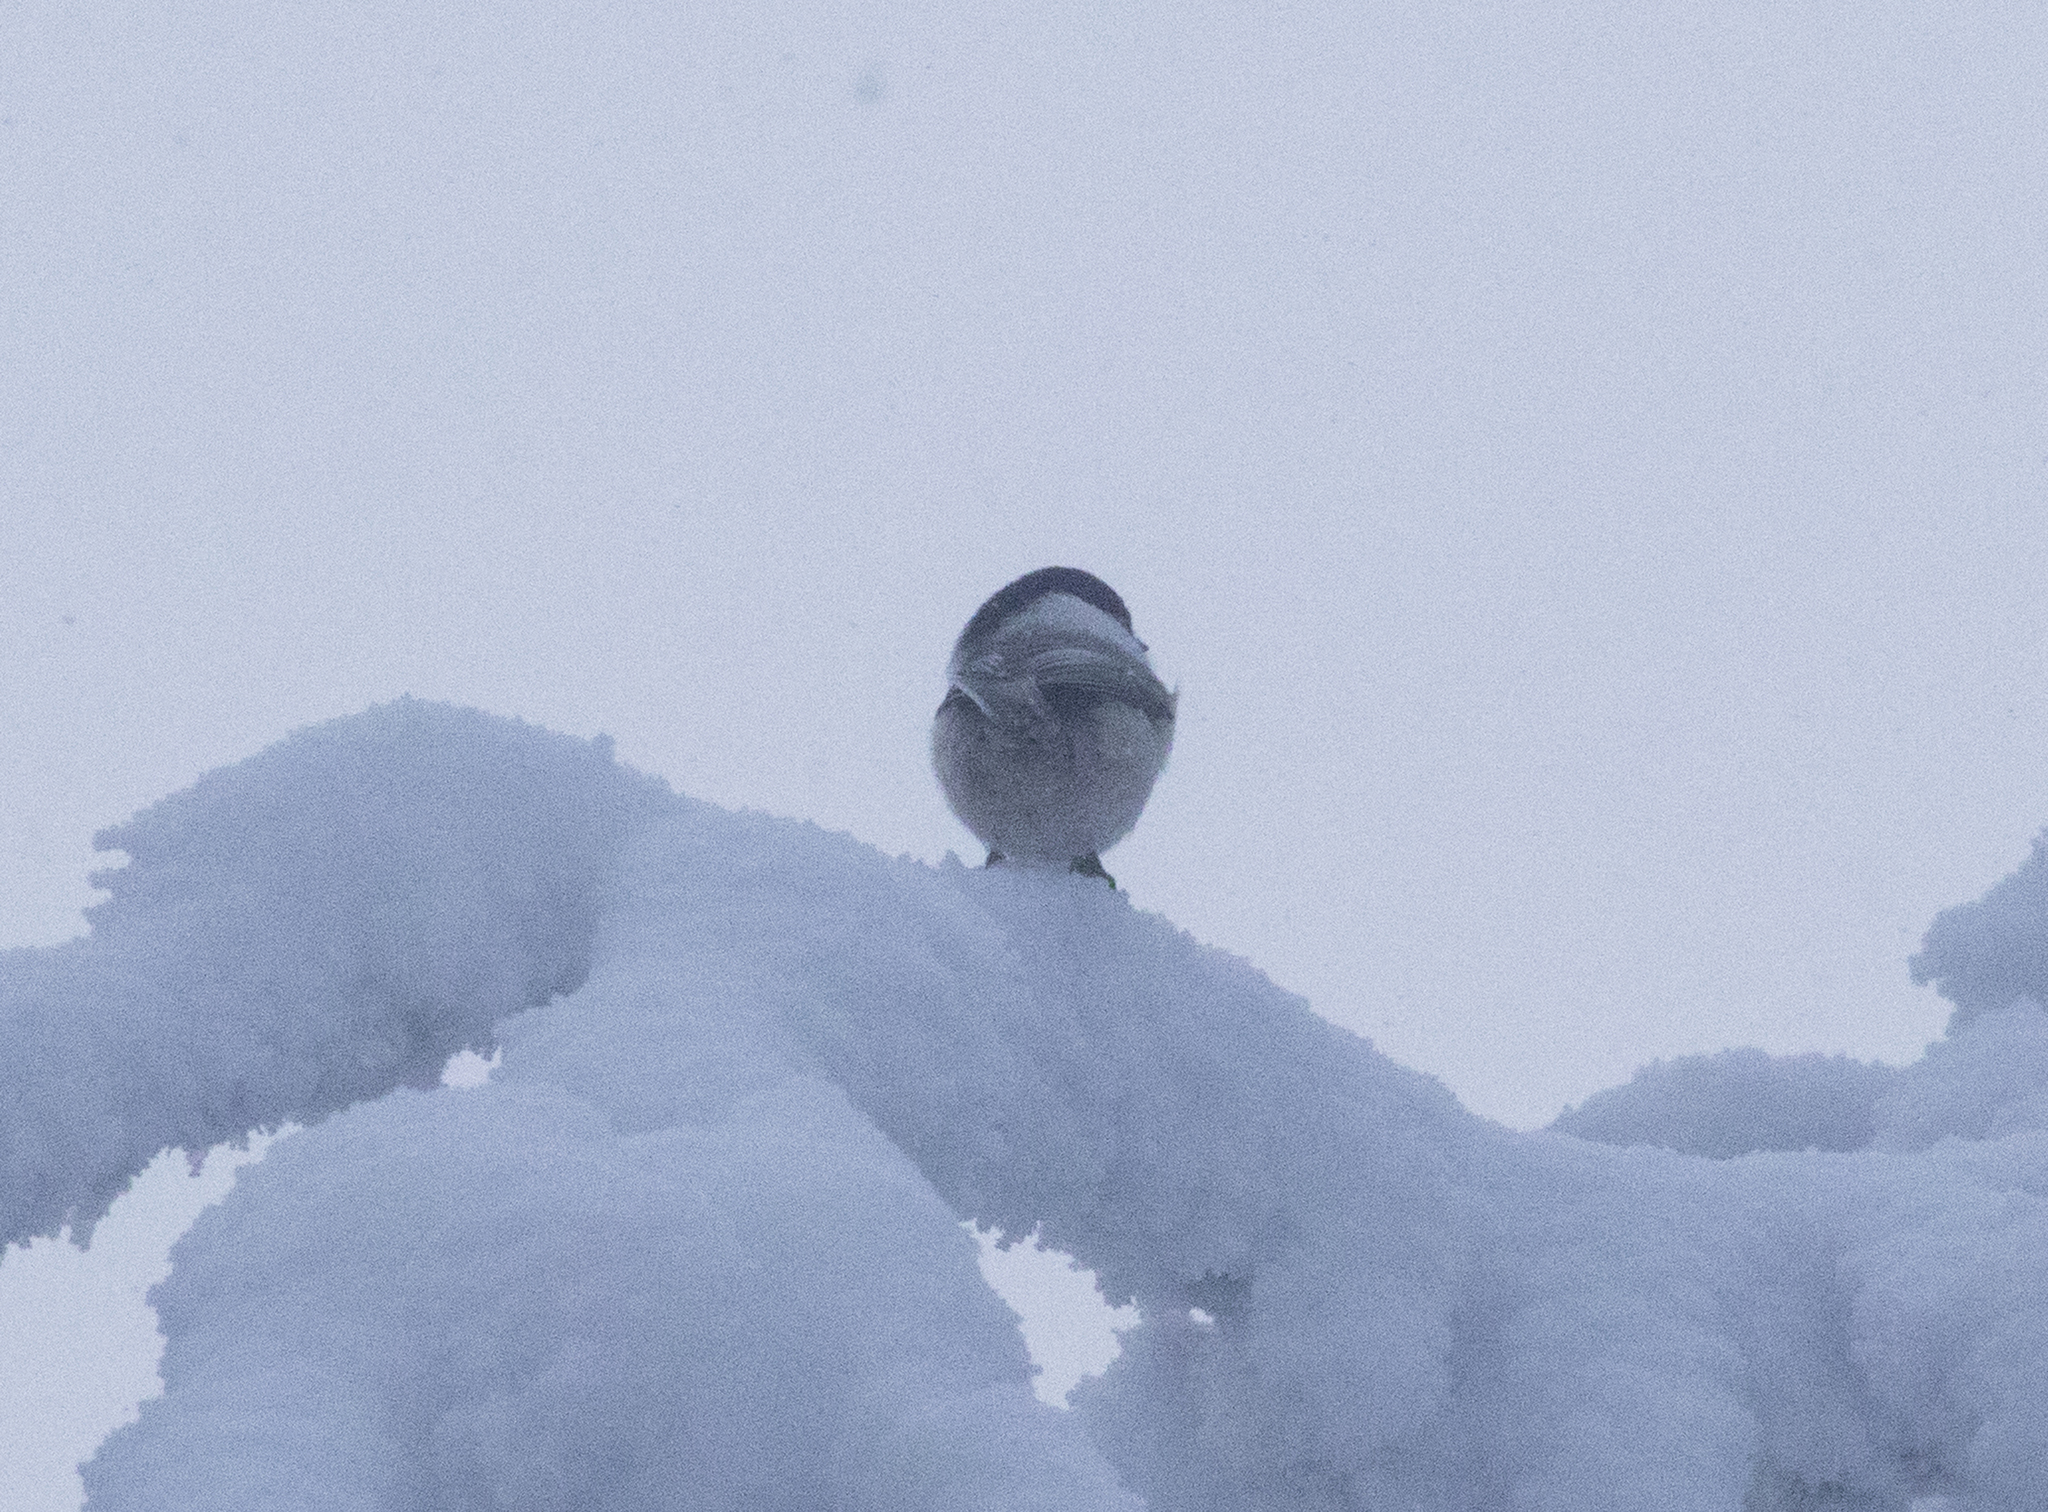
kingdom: Animalia
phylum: Chordata
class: Aves
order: Passeriformes
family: Paridae
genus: Poecile
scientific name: Poecile montanus
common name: Willow tit
